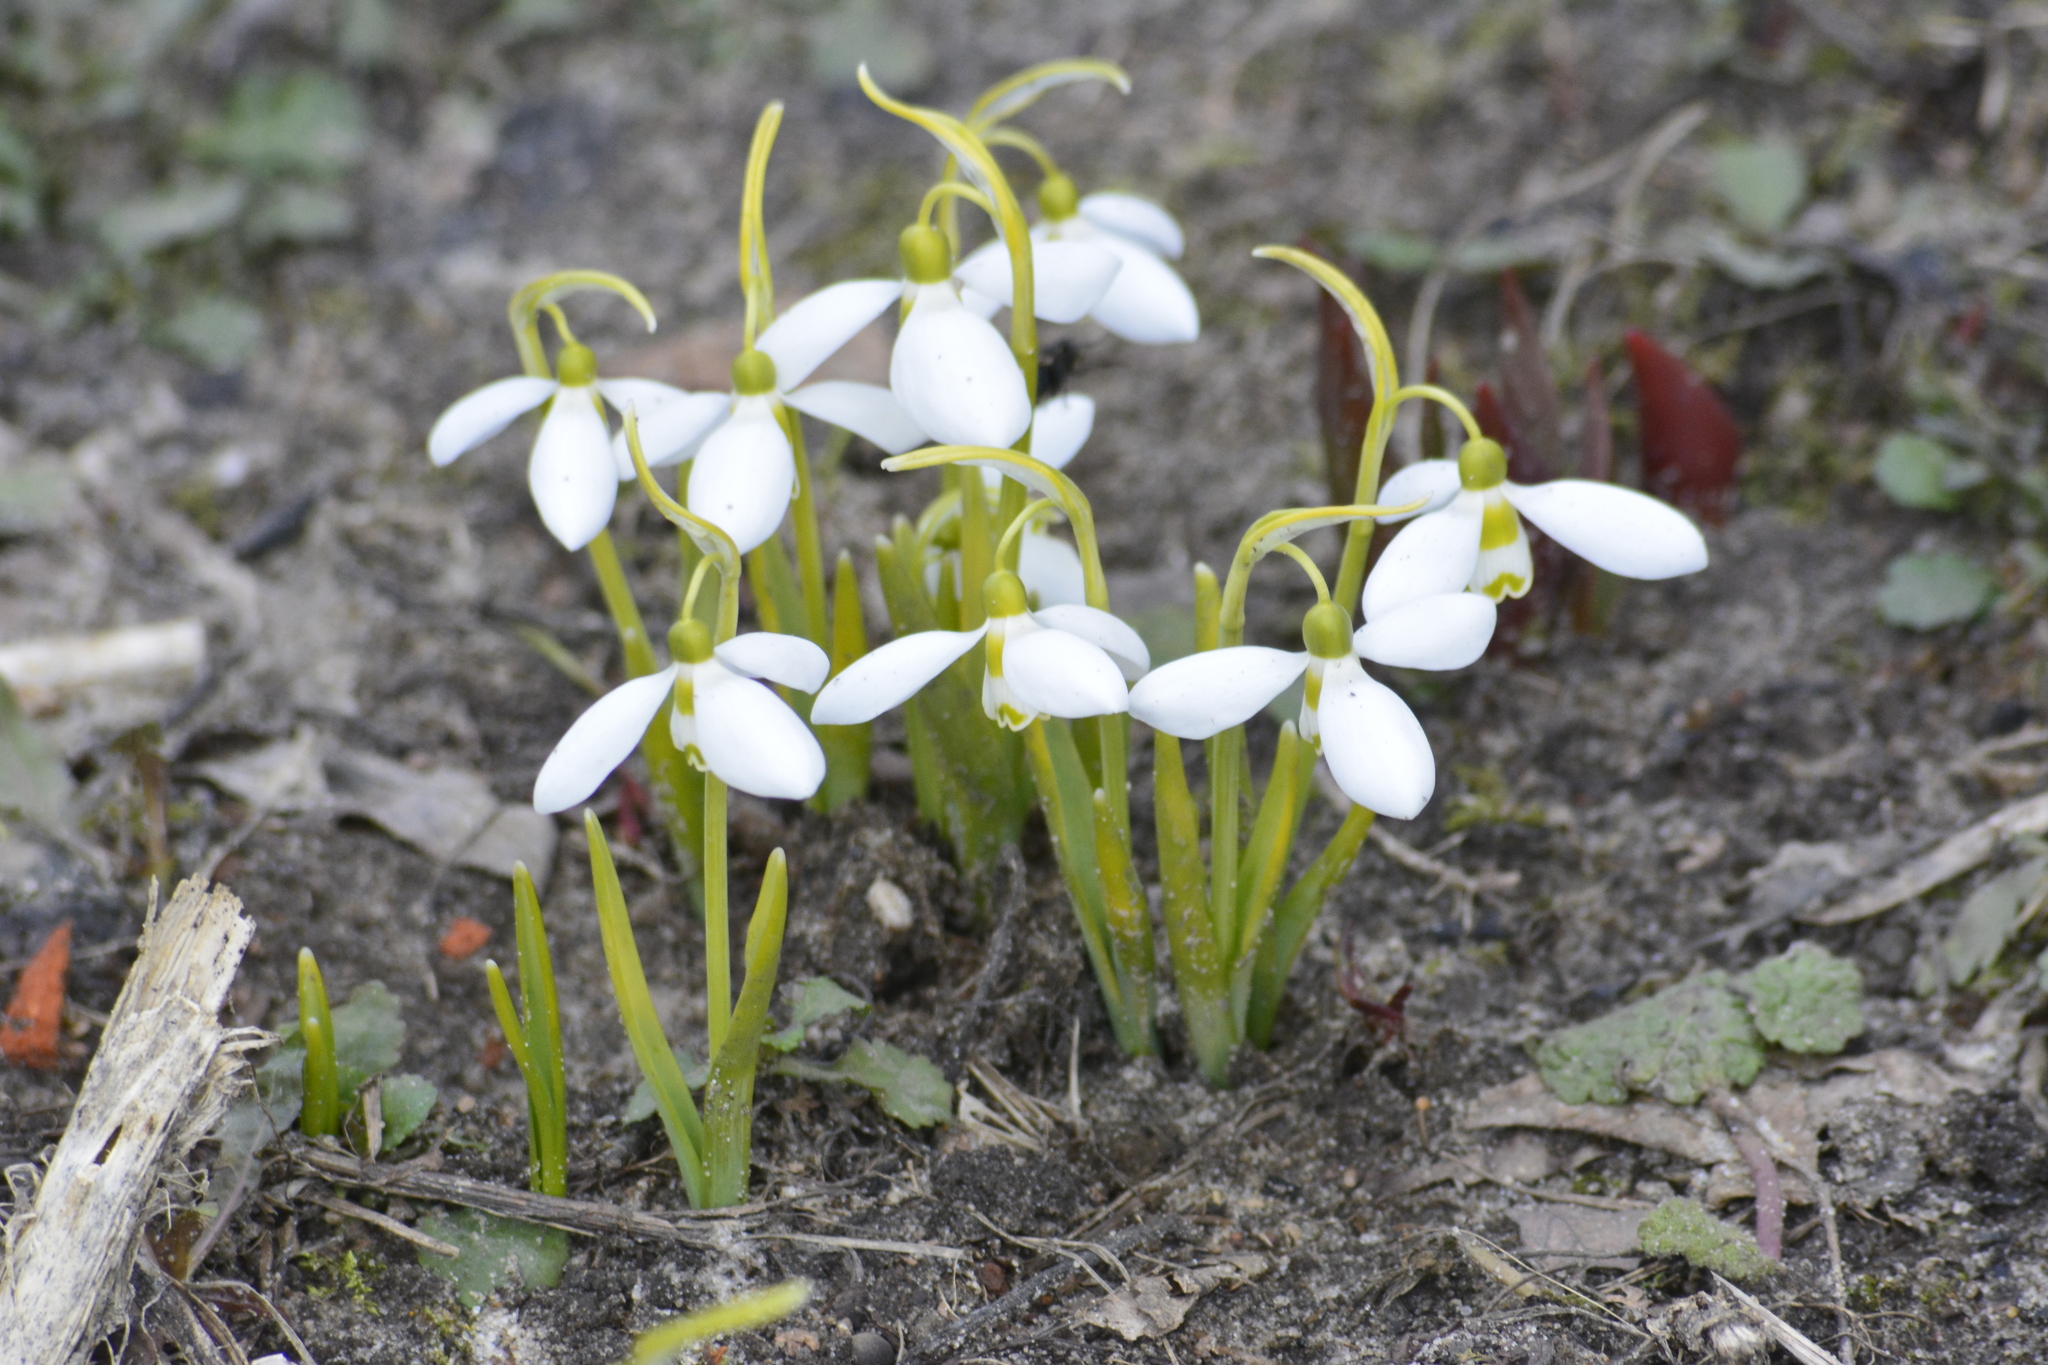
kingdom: Plantae
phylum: Tracheophyta
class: Liliopsida
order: Asparagales
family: Amaryllidaceae
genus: Galanthus
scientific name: Galanthus elwesii
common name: Greater snowdrop
